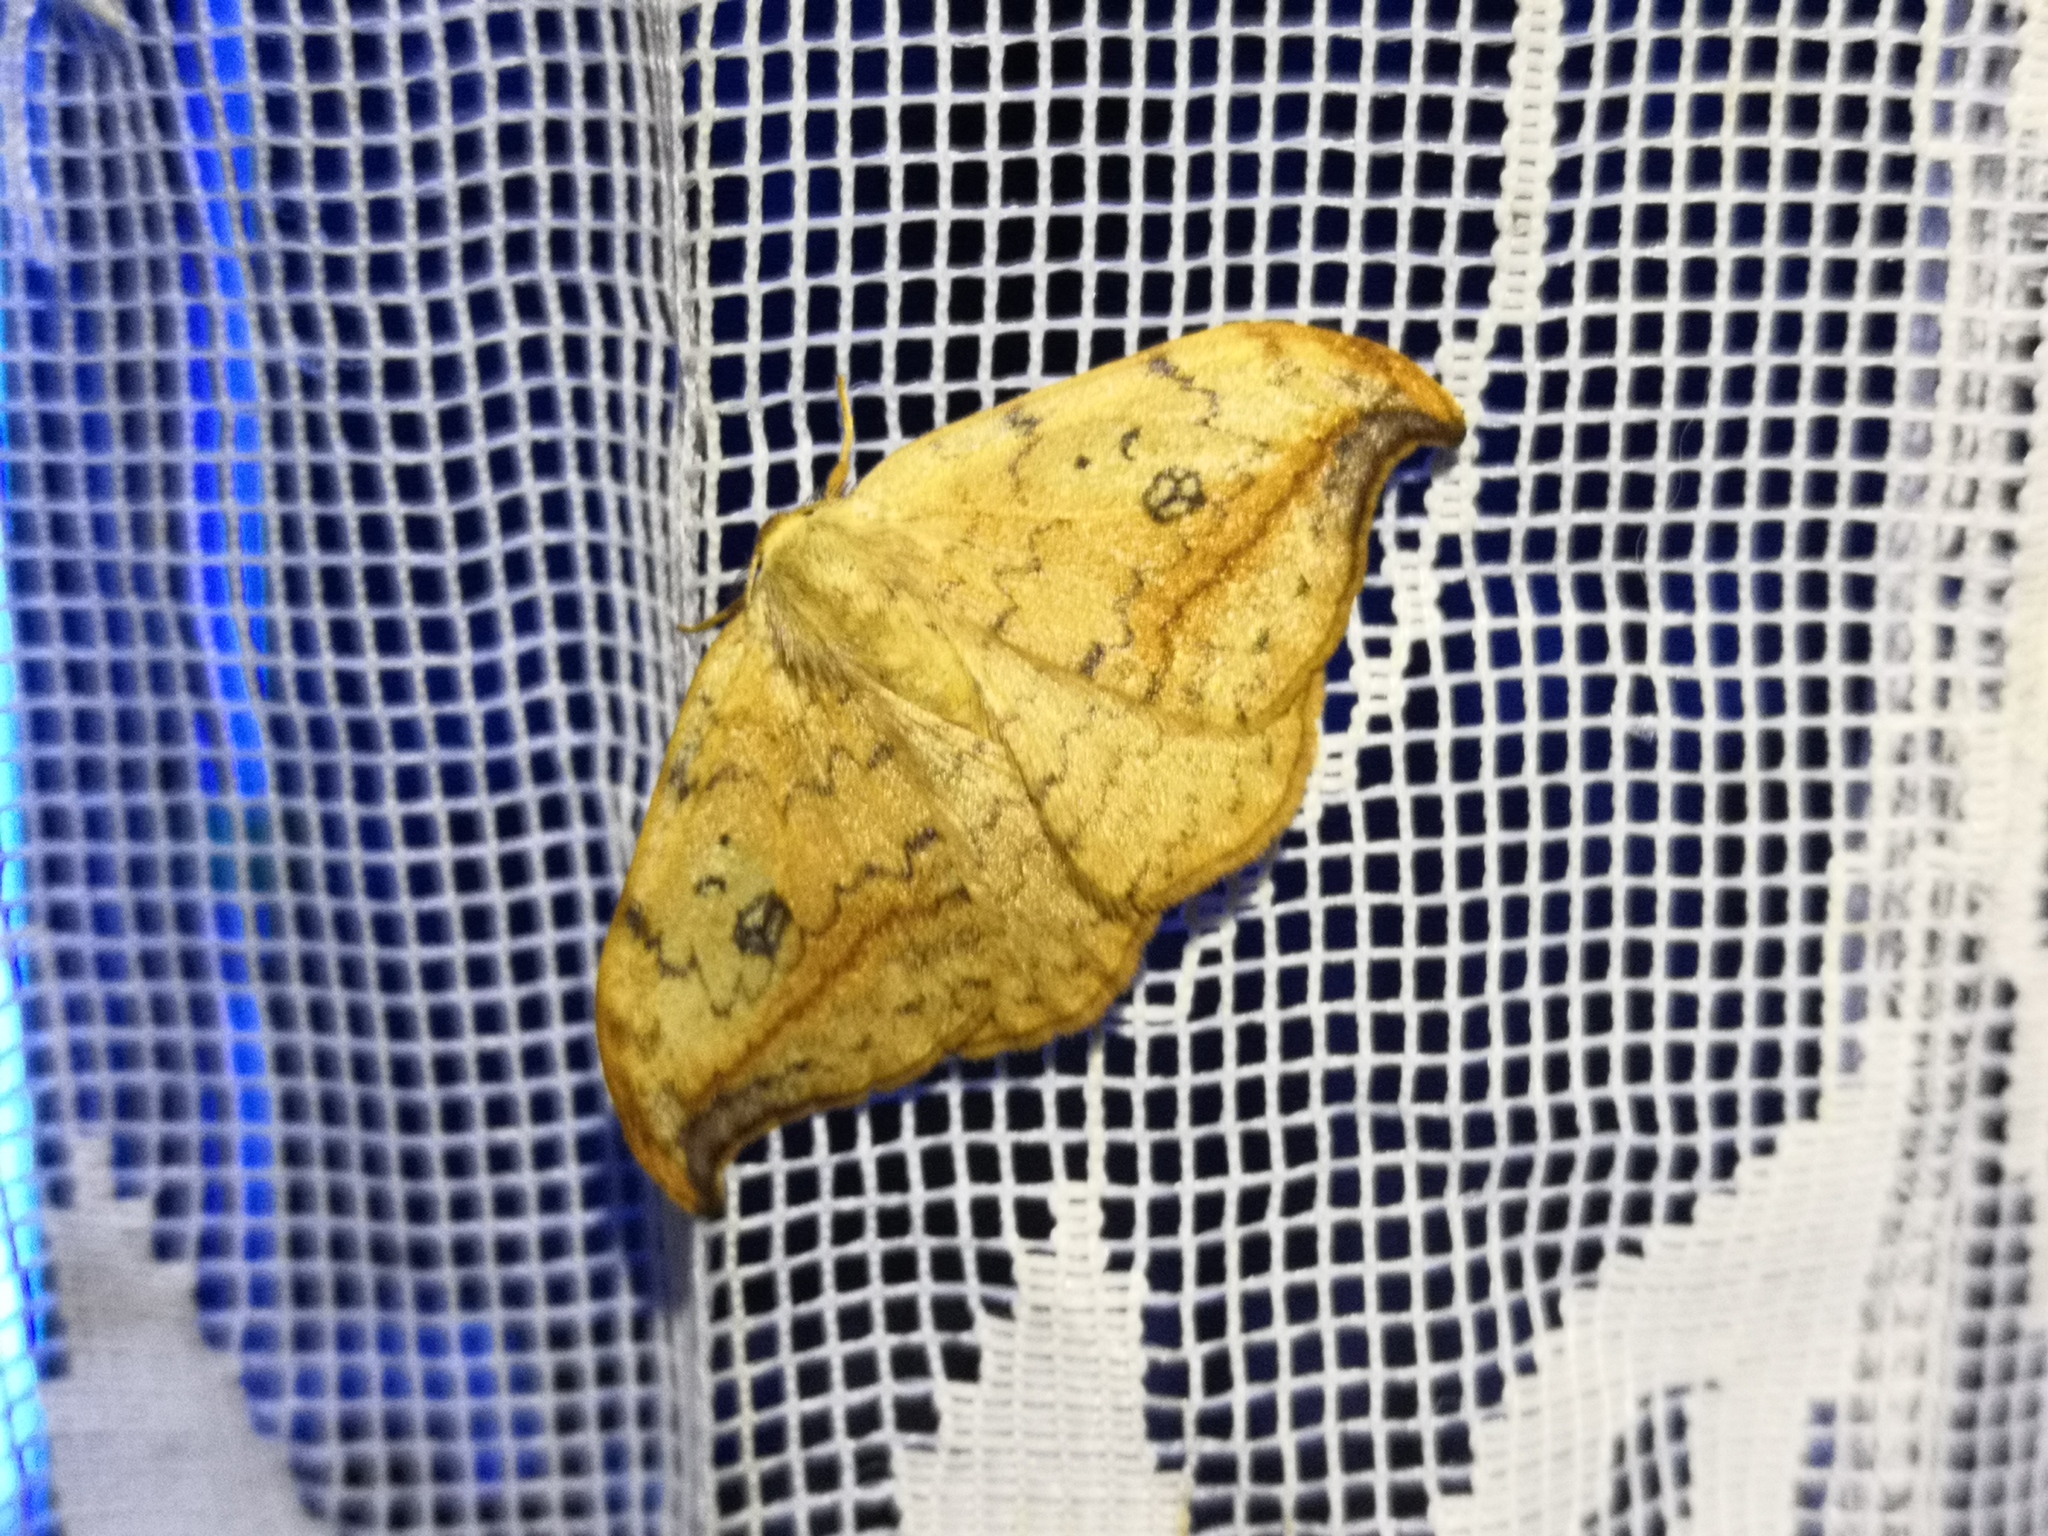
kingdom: Animalia
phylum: Arthropoda
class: Insecta
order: Lepidoptera
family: Drepanidae
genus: Drepana
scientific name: Drepana falcataria
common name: Pebble hook-tip
